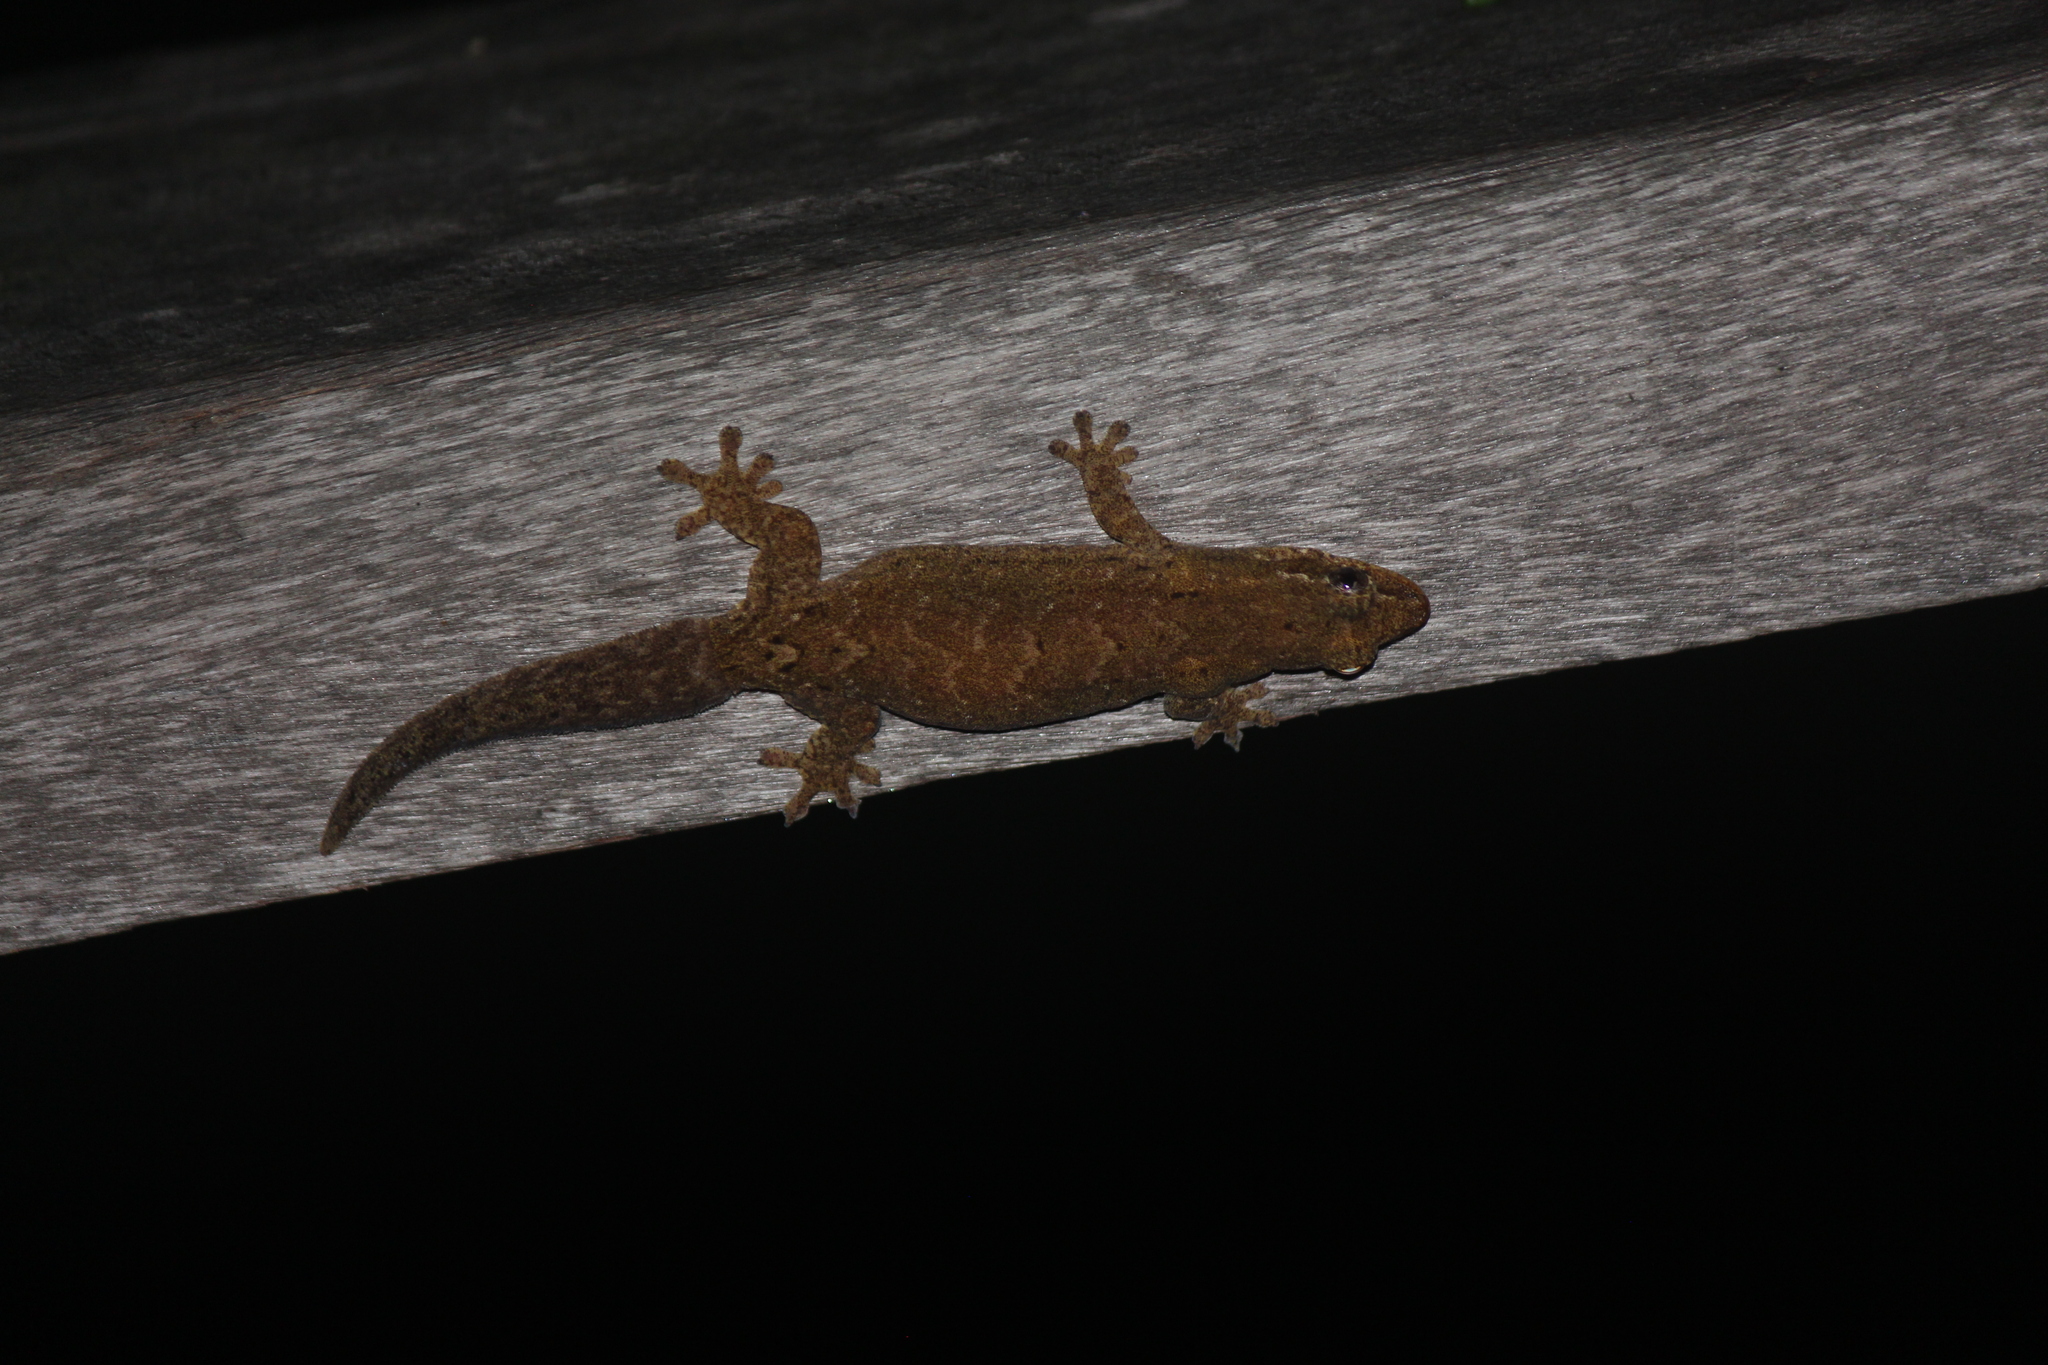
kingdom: Animalia
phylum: Chordata
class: Squamata
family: Gekkonidae
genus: Lepidodactylus
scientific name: Lepidodactylus lugubris
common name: Mourning gecko
